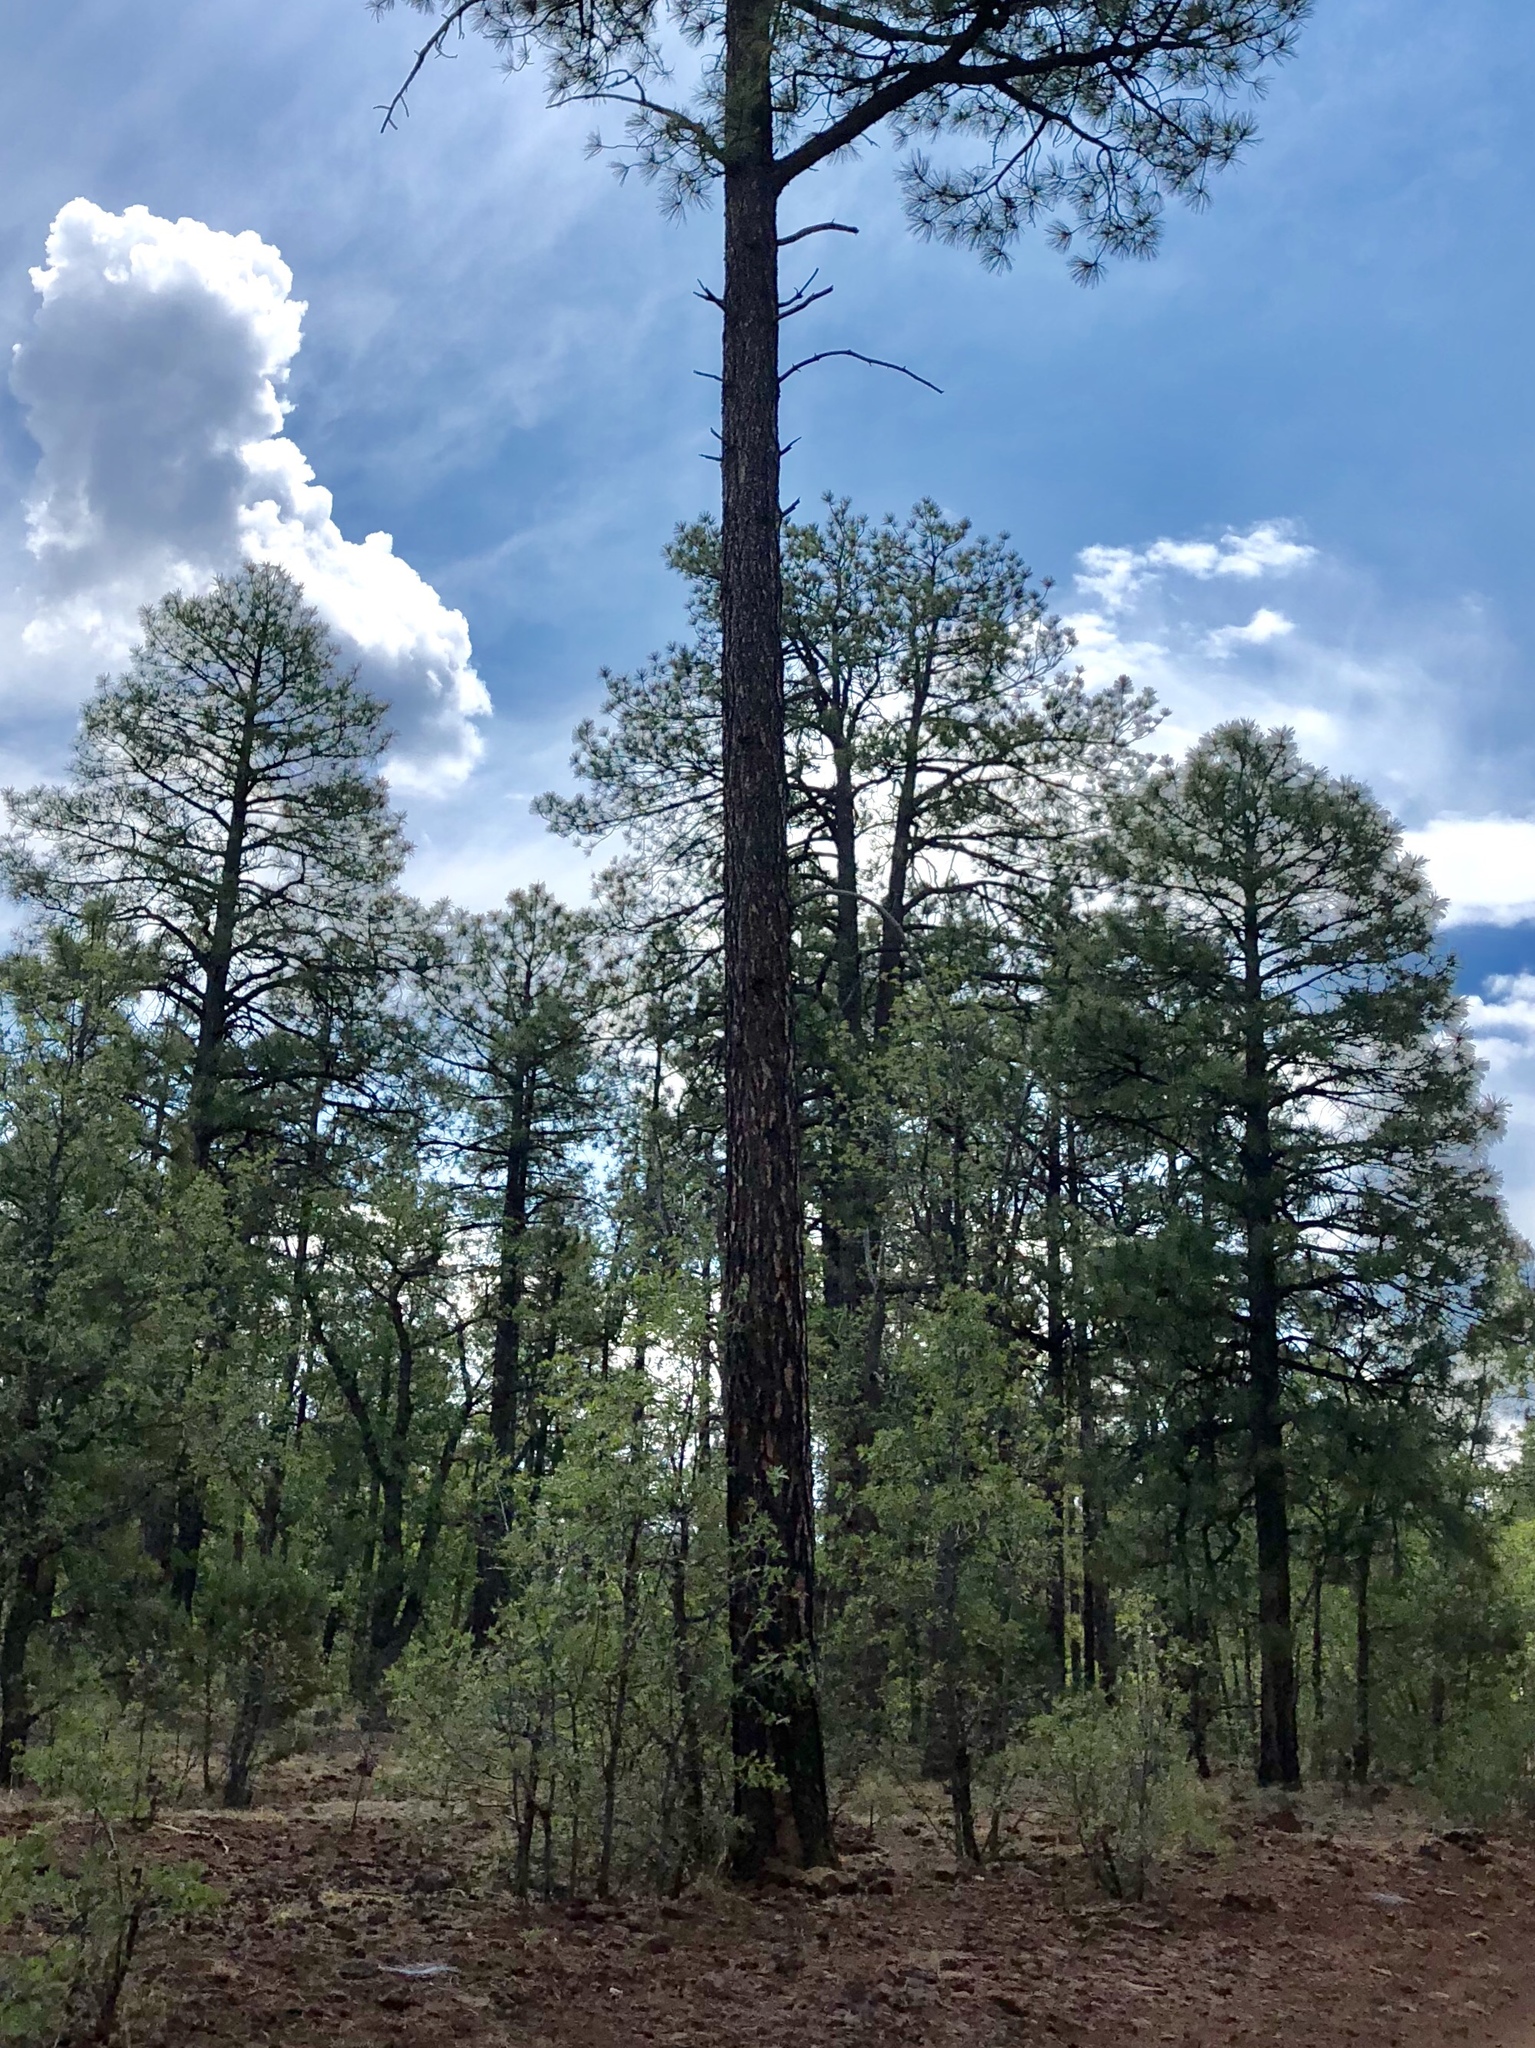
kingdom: Plantae
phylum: Tracheophyta
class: Pinopsida
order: Pinales
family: Pinaceae
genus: Pinus
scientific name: Pinus ponderosa
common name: Western yellow-pine
